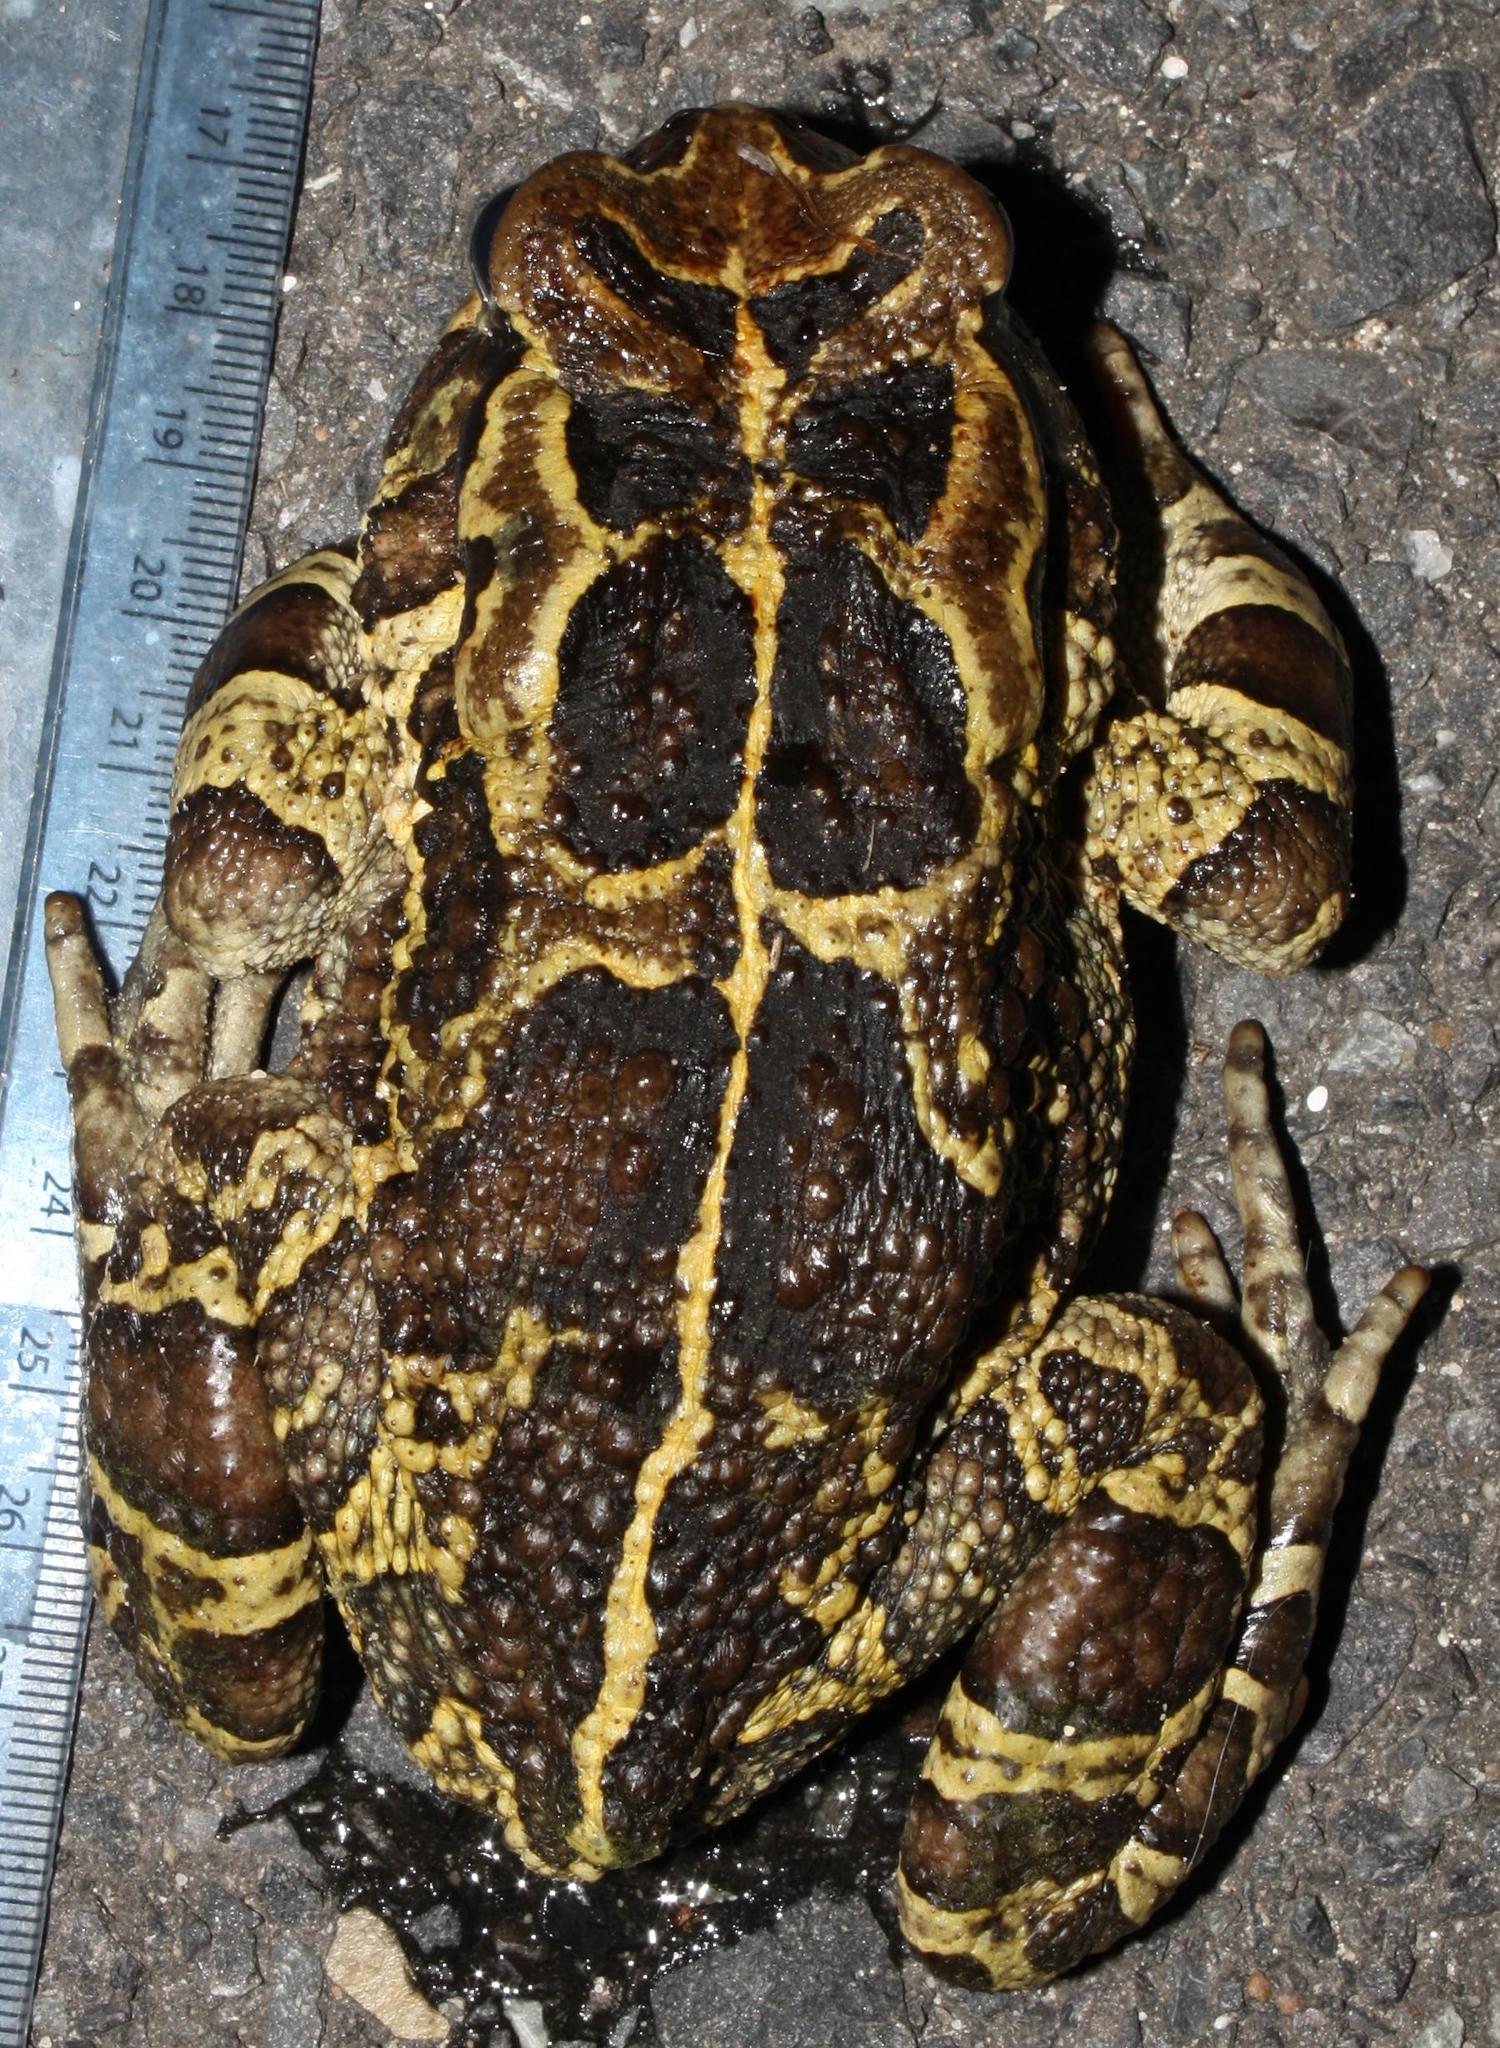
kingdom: Animalia
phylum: Chordata
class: Amphibia
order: Anura
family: Bufonidae
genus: Sclerophrys
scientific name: Sclerophrys pantherina
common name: Panther toad
